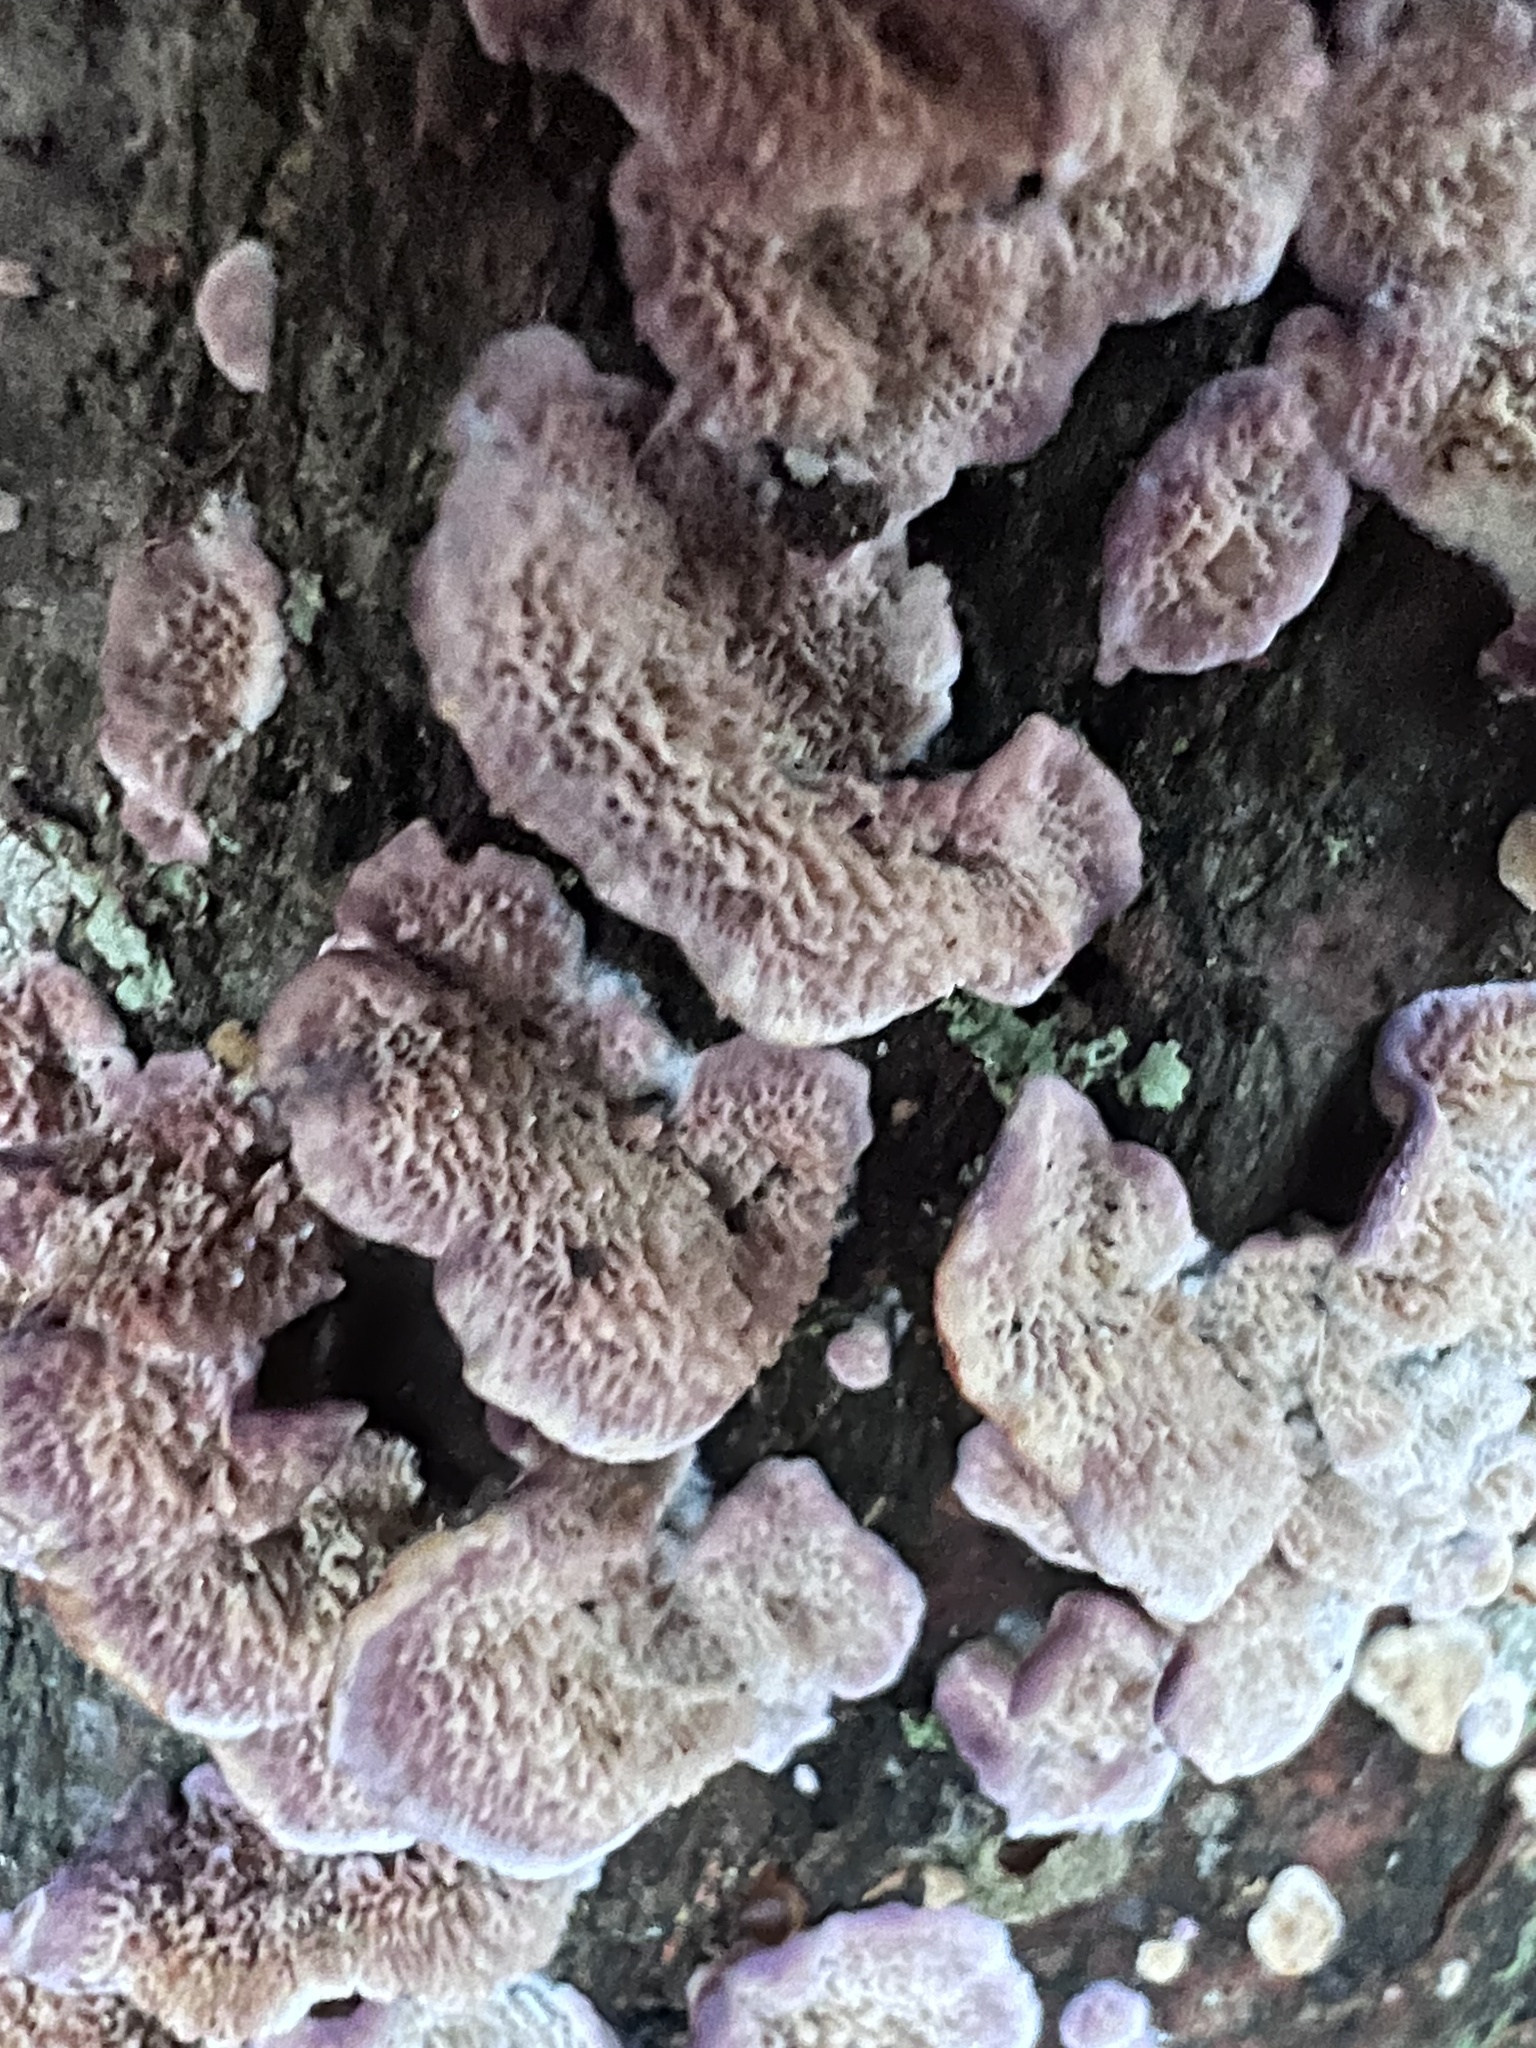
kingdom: Fungi
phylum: Basidiomycota
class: Agaricomycetes
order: Hymenochaetales
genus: Trichaptum
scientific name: Trichaptum biforme
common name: Violet-toothed polypore
